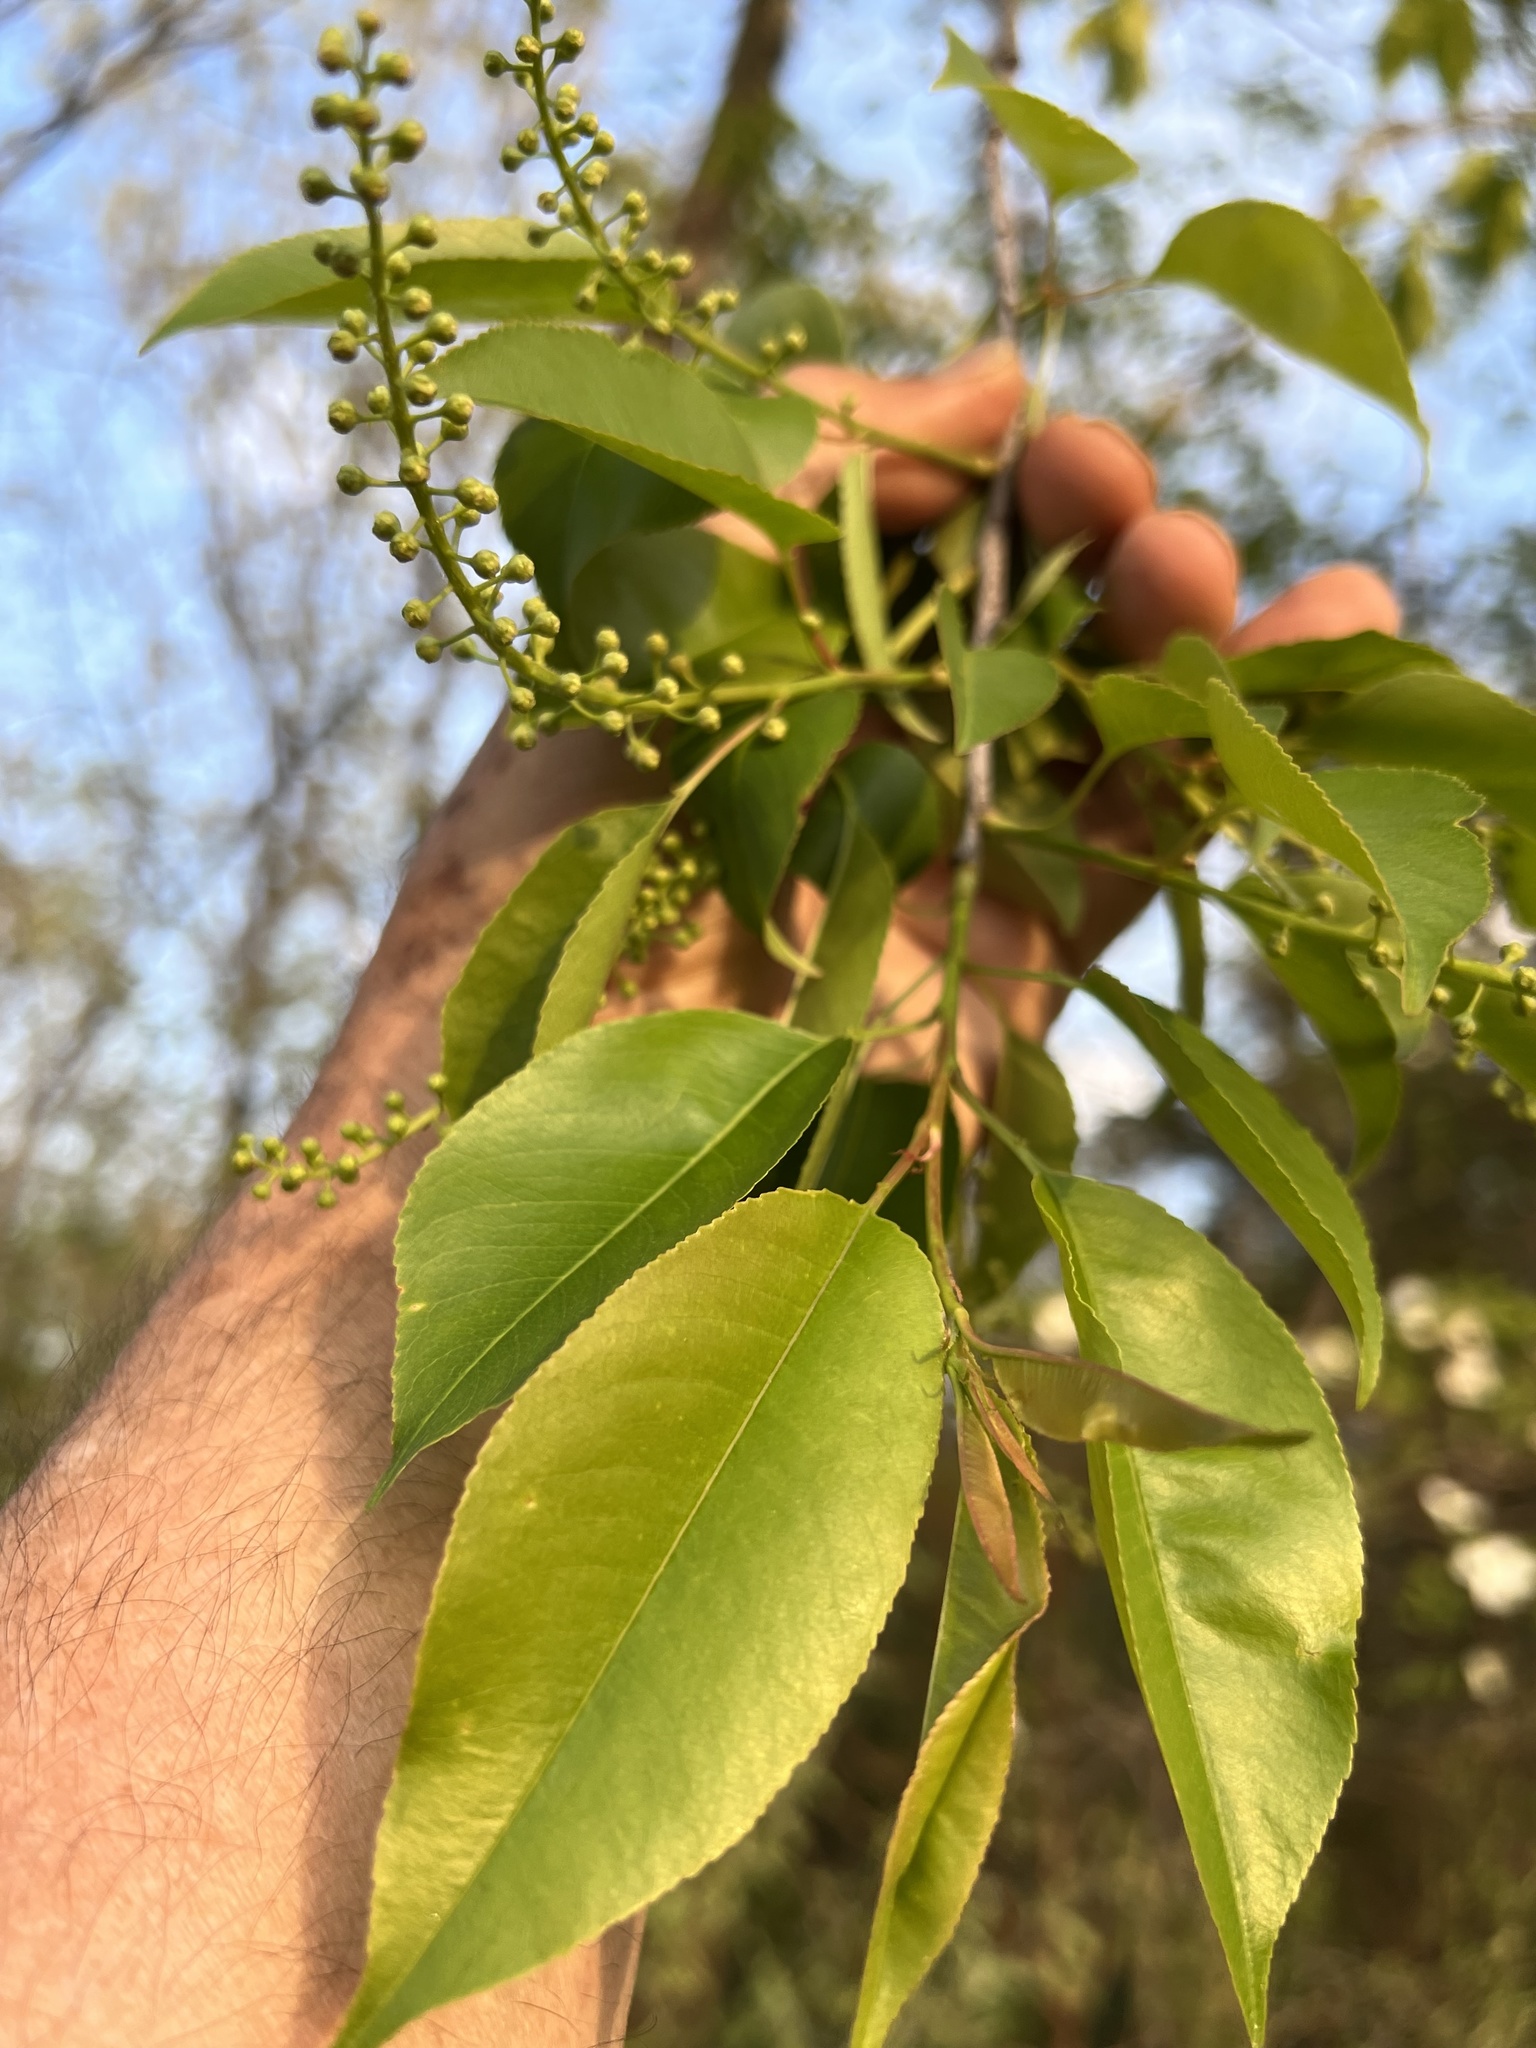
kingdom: Plantae
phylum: Tracheophyta
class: Magnoliopsida
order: Rosales
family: Rosaceae
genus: Prunus
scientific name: Prunus serotina
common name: Black cherry
